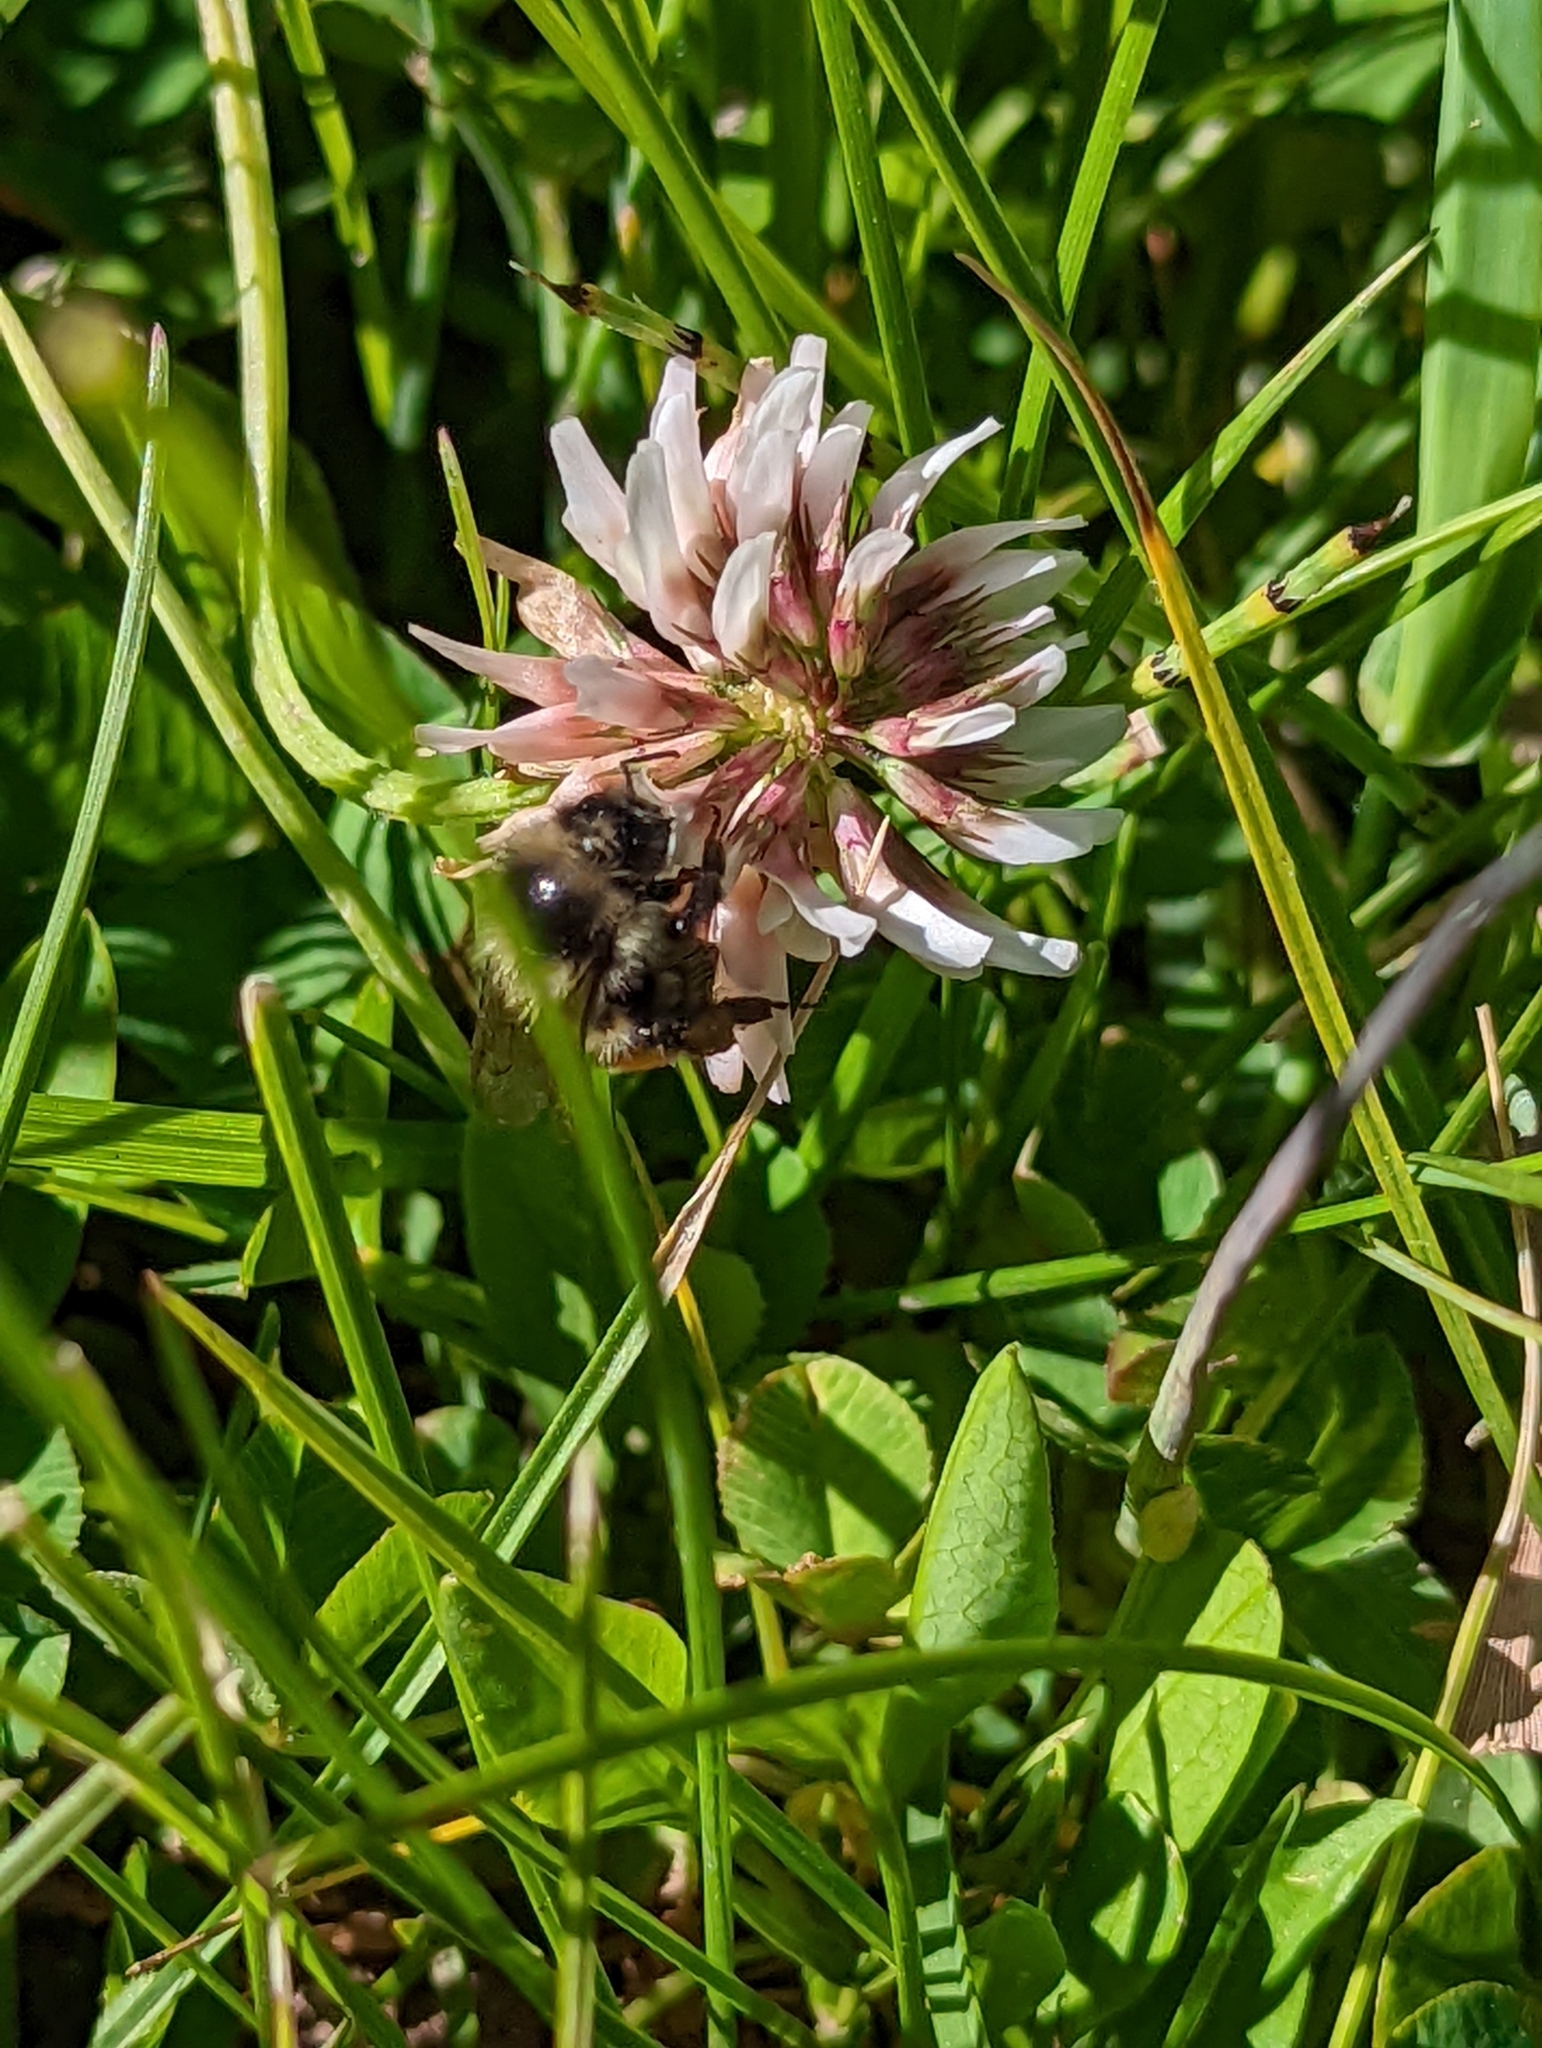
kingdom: Plantae
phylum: Tracheophyta
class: Magnoliopsida
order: Fabales
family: Fabaceae
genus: Trifolium
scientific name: Trifolium repens
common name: White clover
